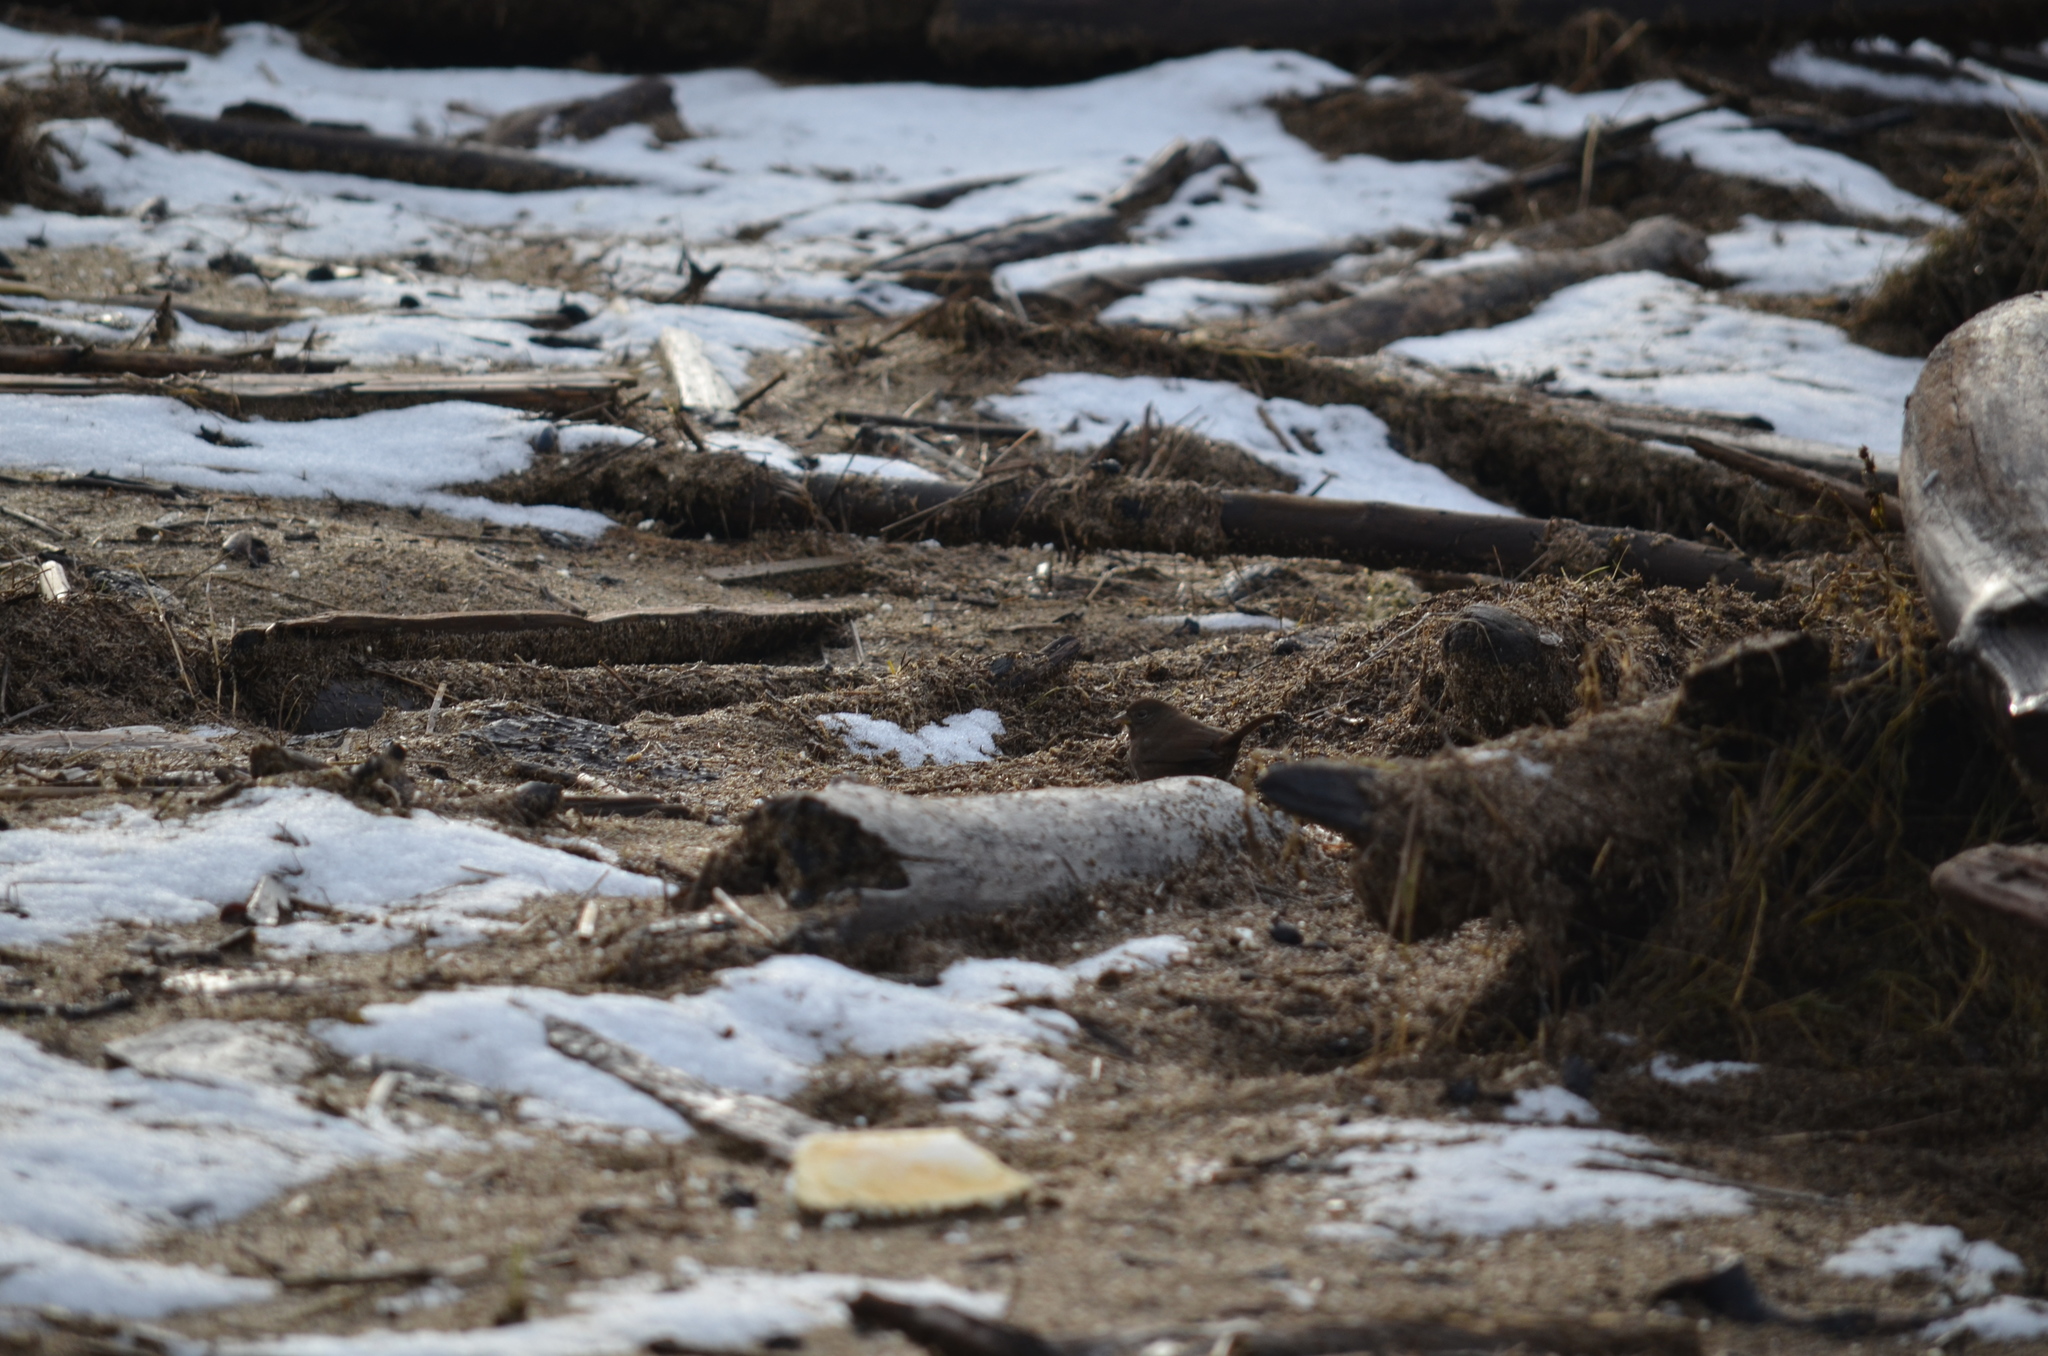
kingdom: Animalia
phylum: Chordata
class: Aves
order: Passeriformes
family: Passerellidae
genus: Passerella
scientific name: Passerella iliaca
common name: Fox sparrow
